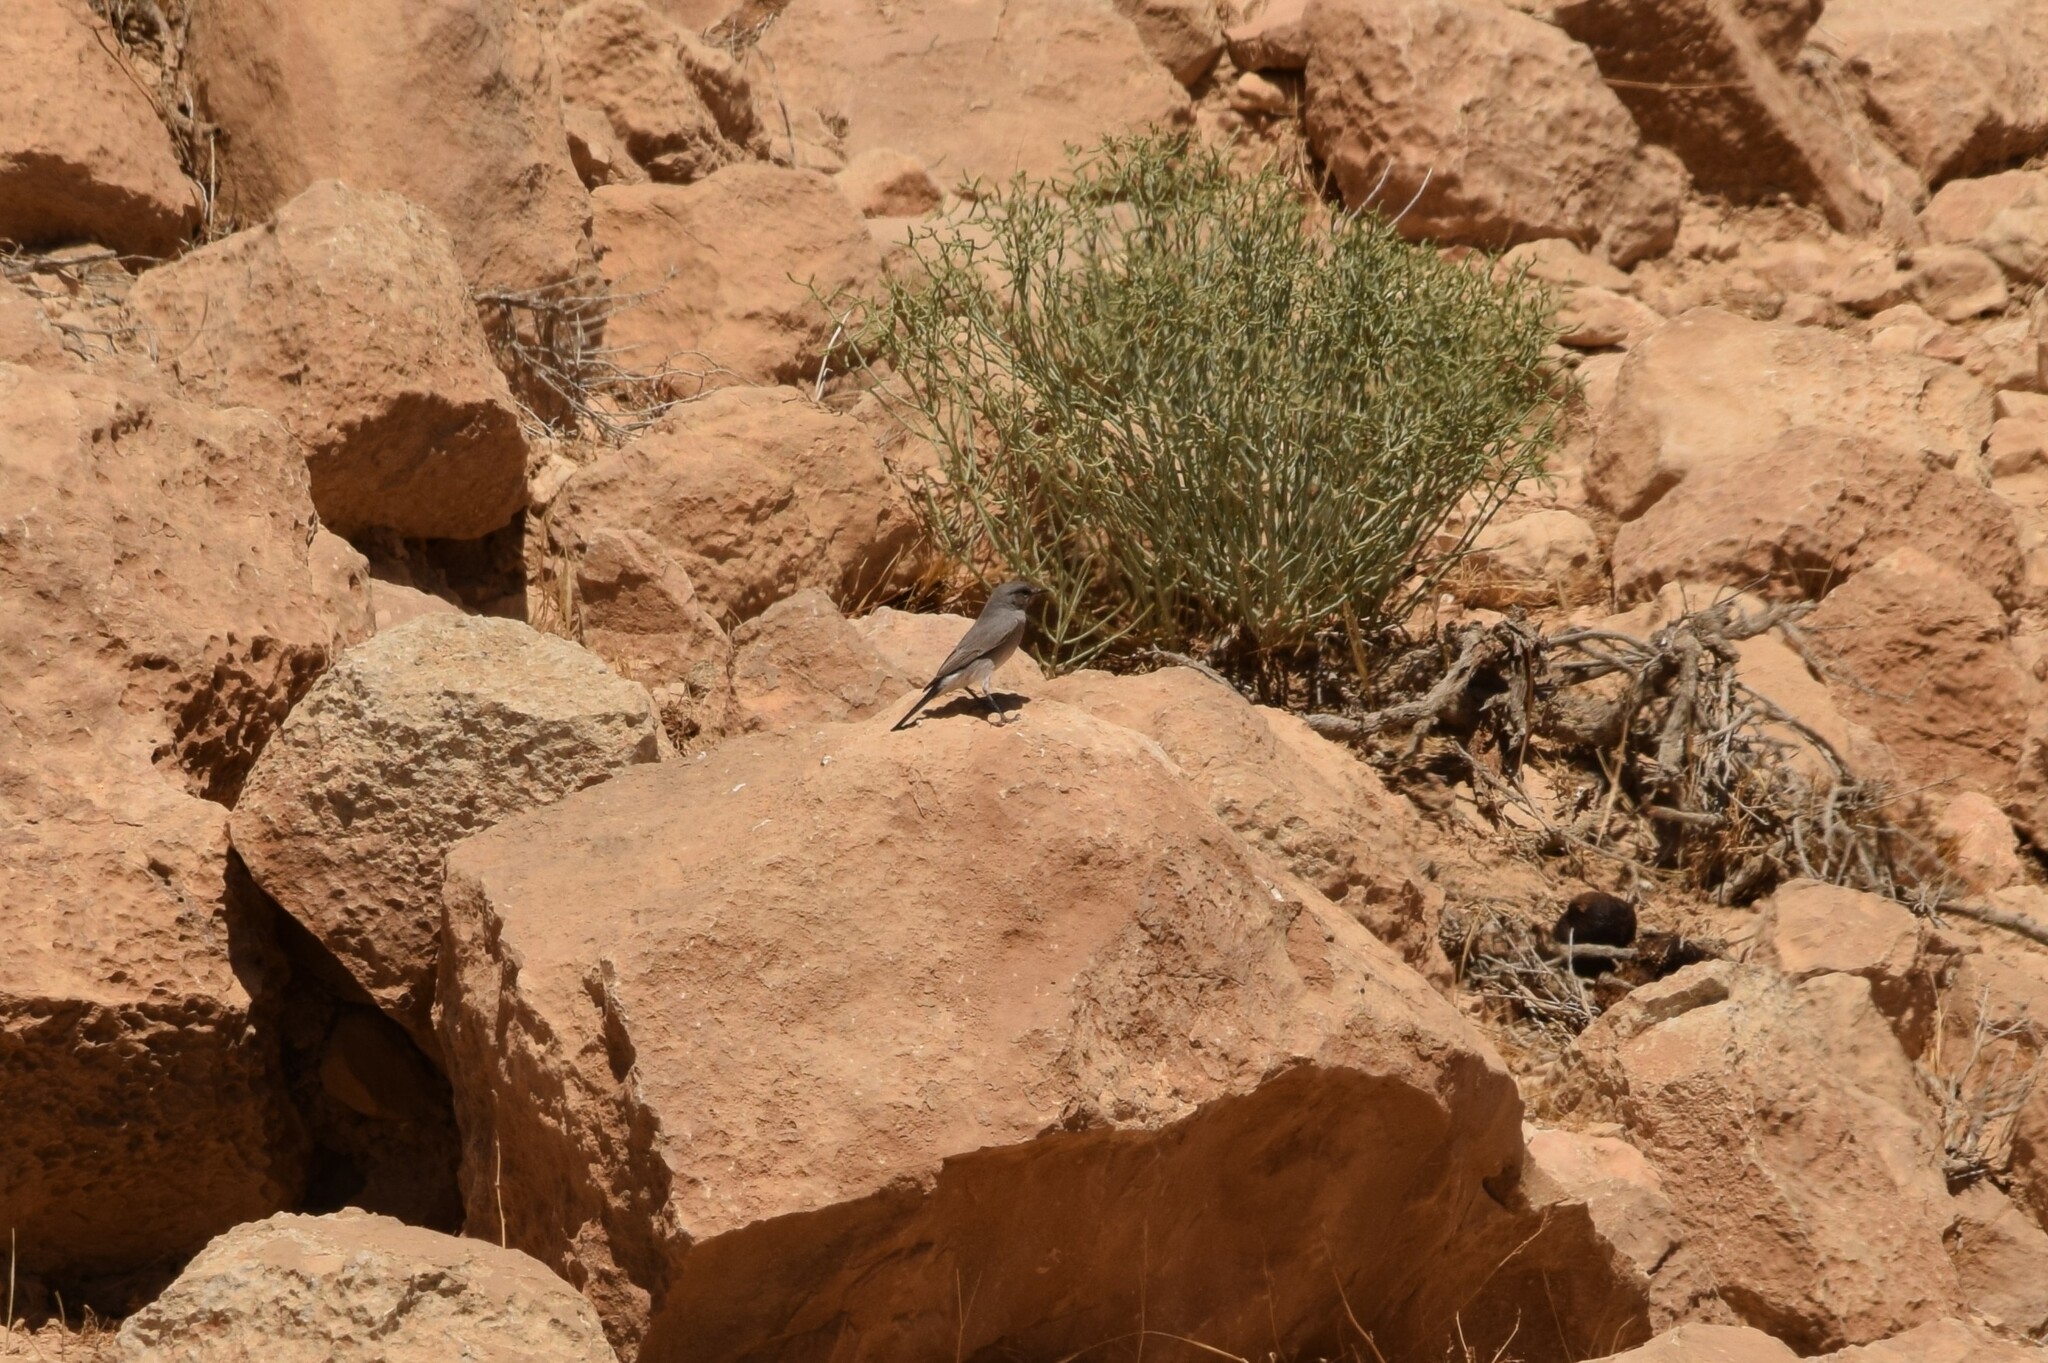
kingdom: Animalia
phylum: Chordata
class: Aves
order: Passeriformes
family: Muscicapidae
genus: Oenanthe
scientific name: Oenanthe melanura
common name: Blackstart
